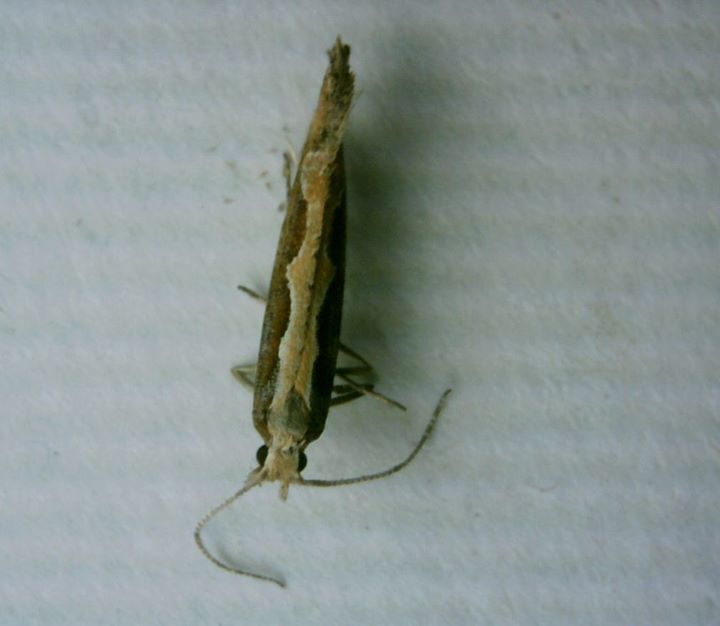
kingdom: Animalia
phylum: Arthropoda
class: Insecta
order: Lepidoptera
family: Plutellidae
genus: Plutella
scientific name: Plutella xylostella
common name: Diamond-back moth
